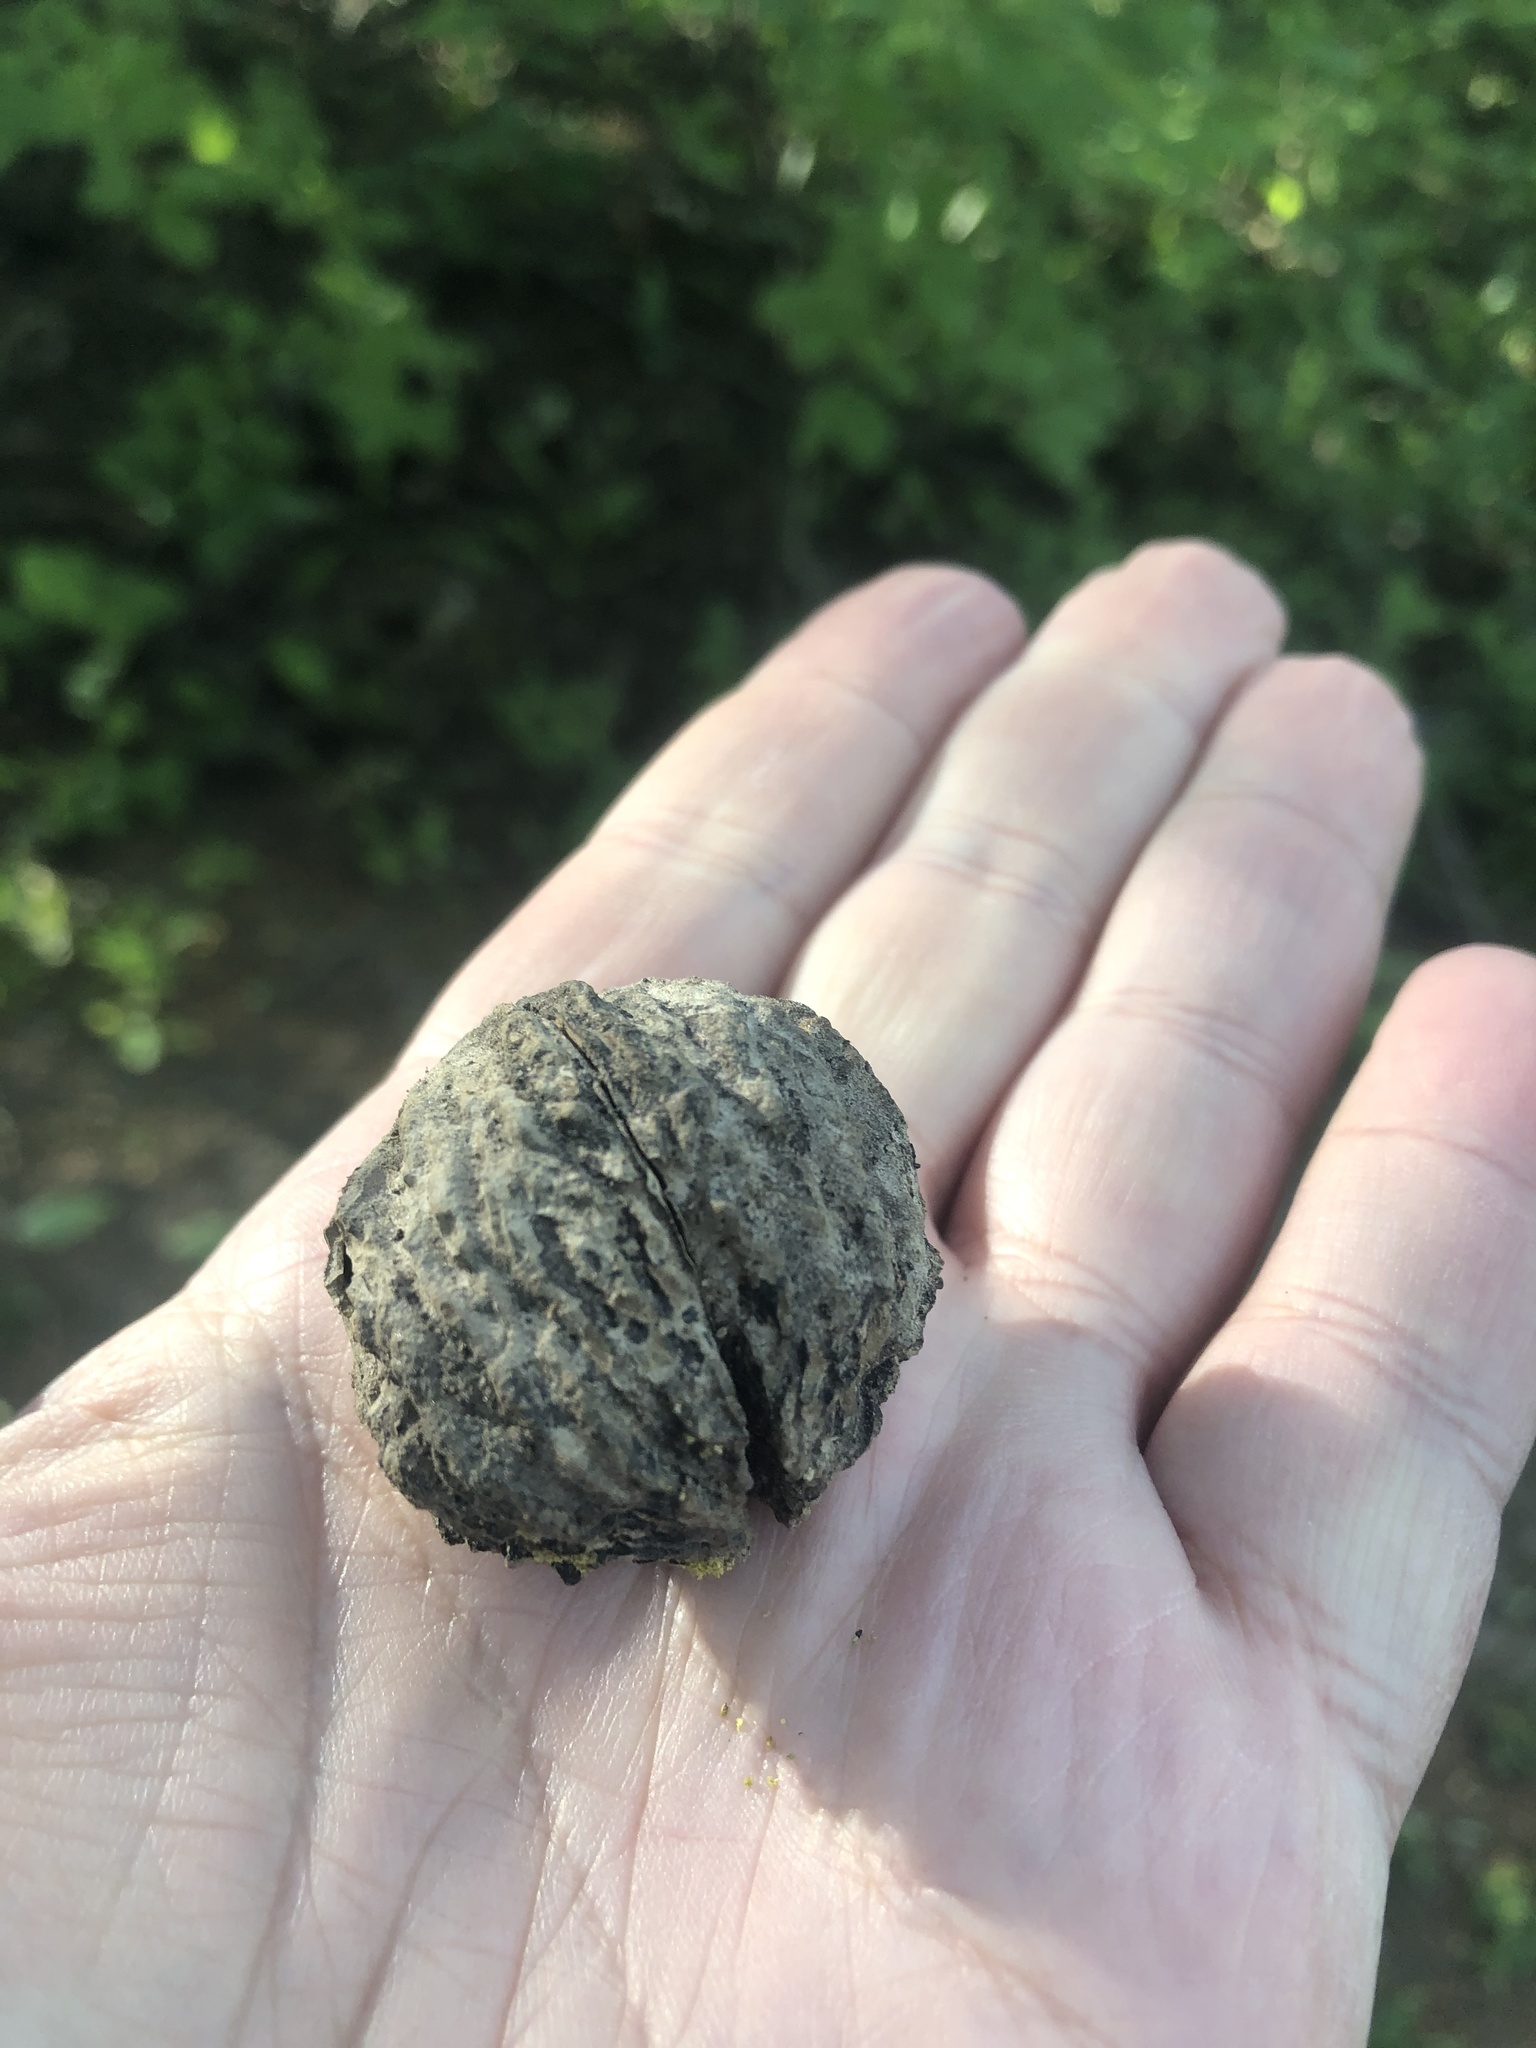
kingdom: Plantae
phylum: Tracheophyta
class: Magnoliopsida
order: Fagales
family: Juglandaceae
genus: Juglans
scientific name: Juglans nigra
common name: Black walnut
